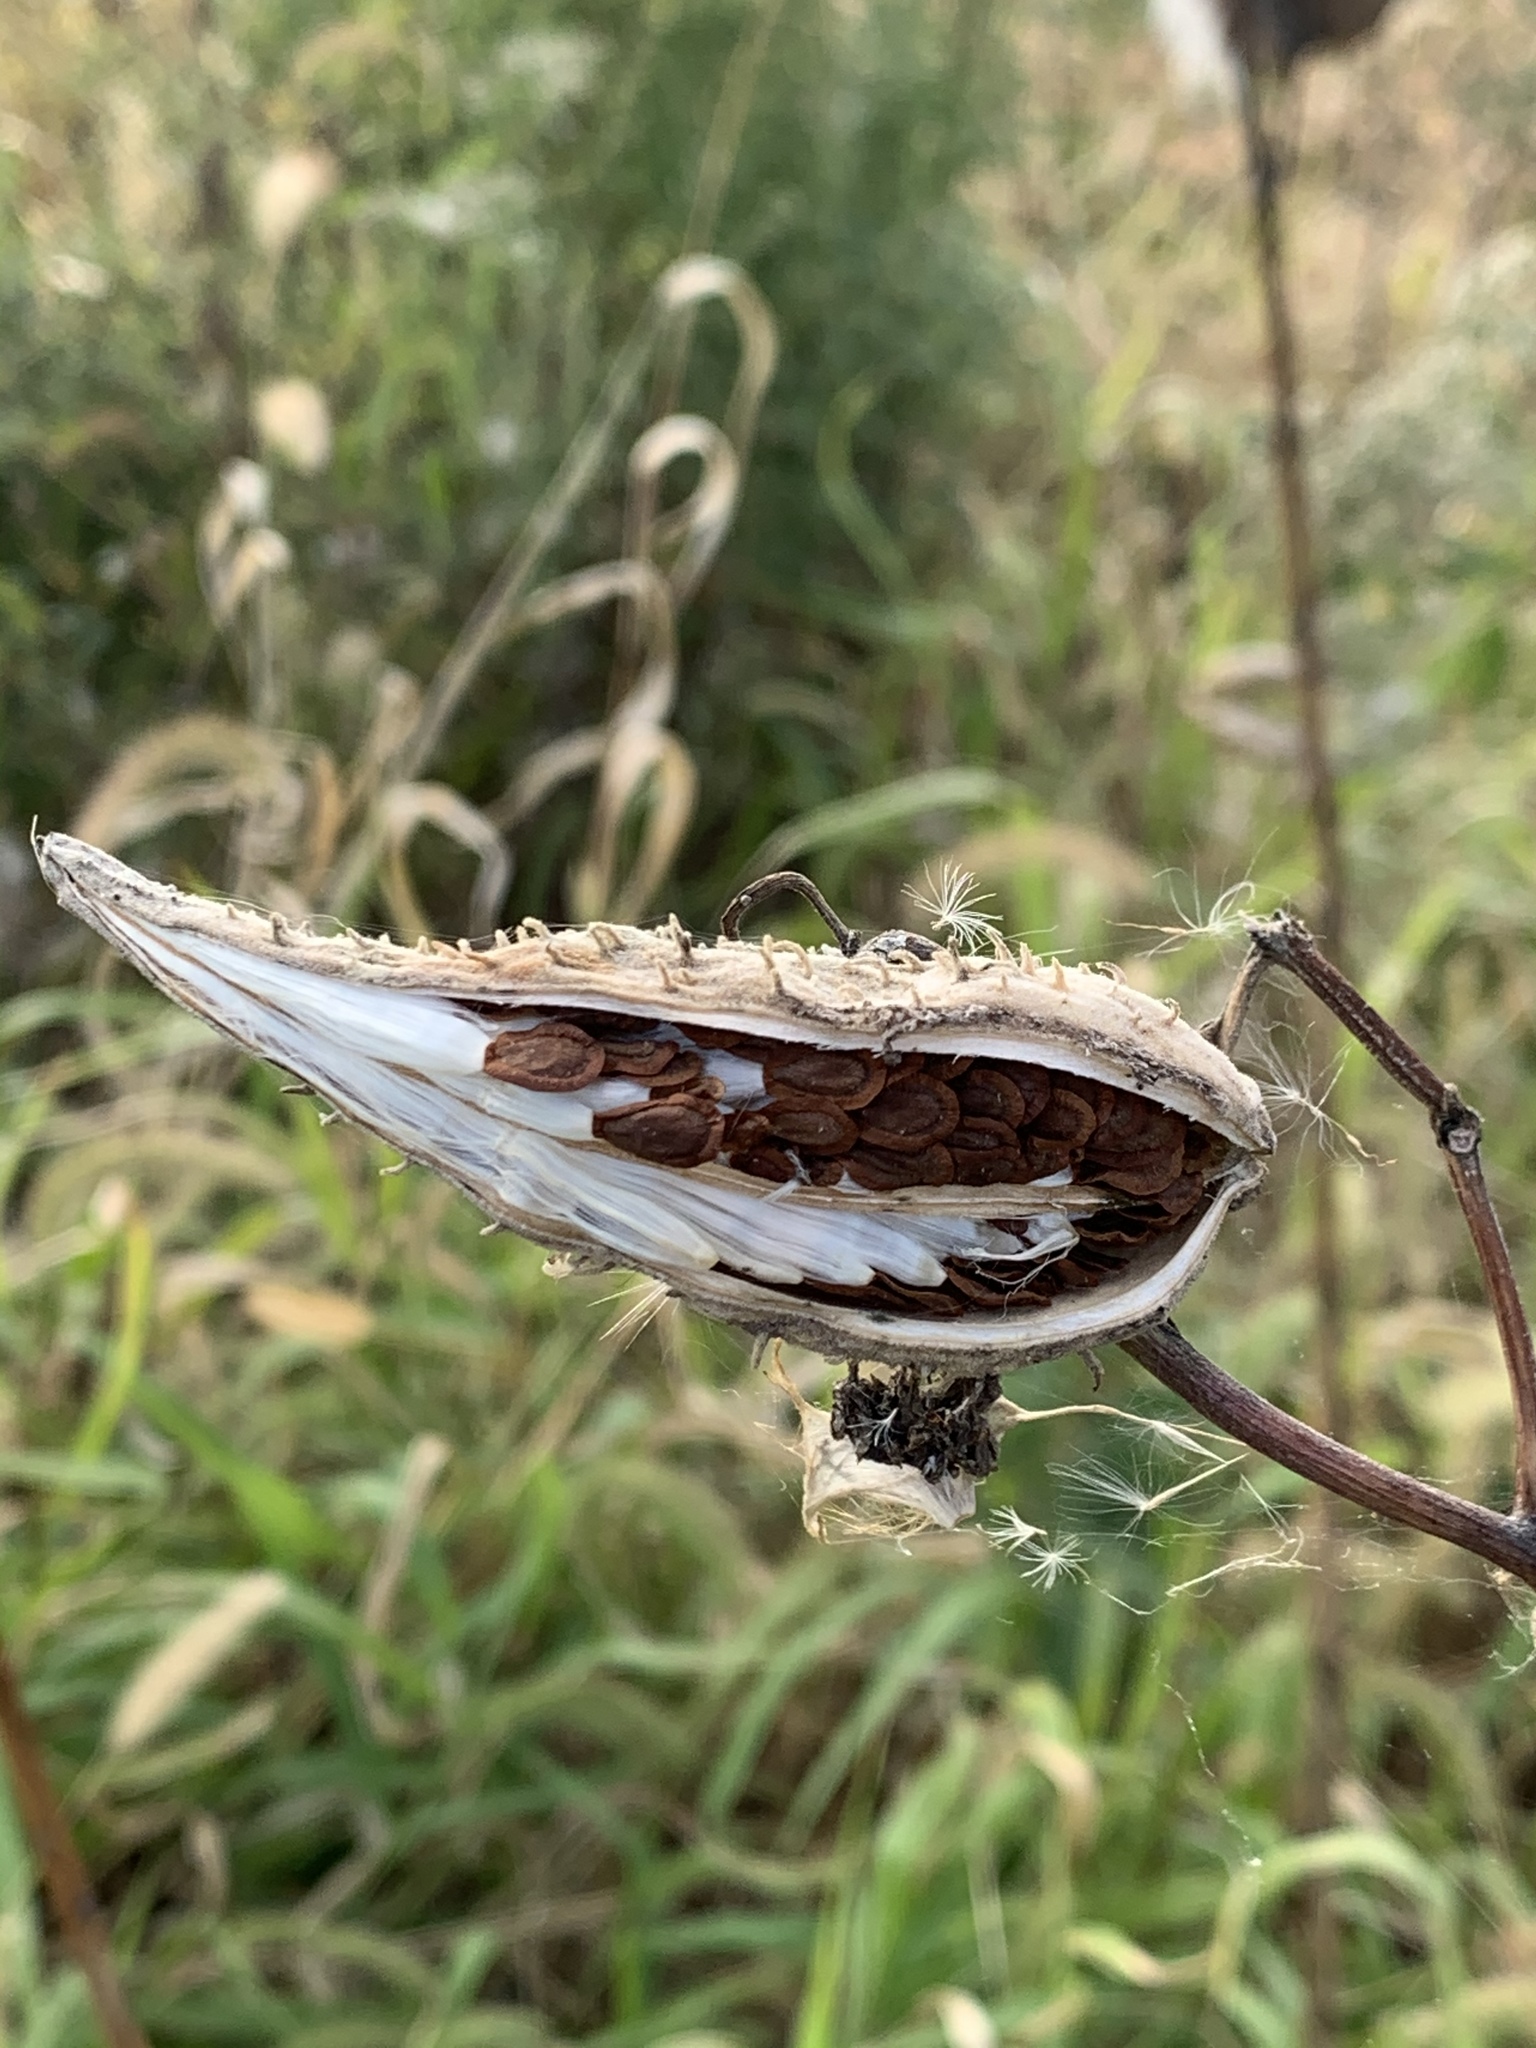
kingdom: Plantae
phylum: Tracheophyta
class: Magnoliopsida
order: Gentianales
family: Apocynaceae
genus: Asclepias
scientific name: Asclepias syriaca
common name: Common milkweed
